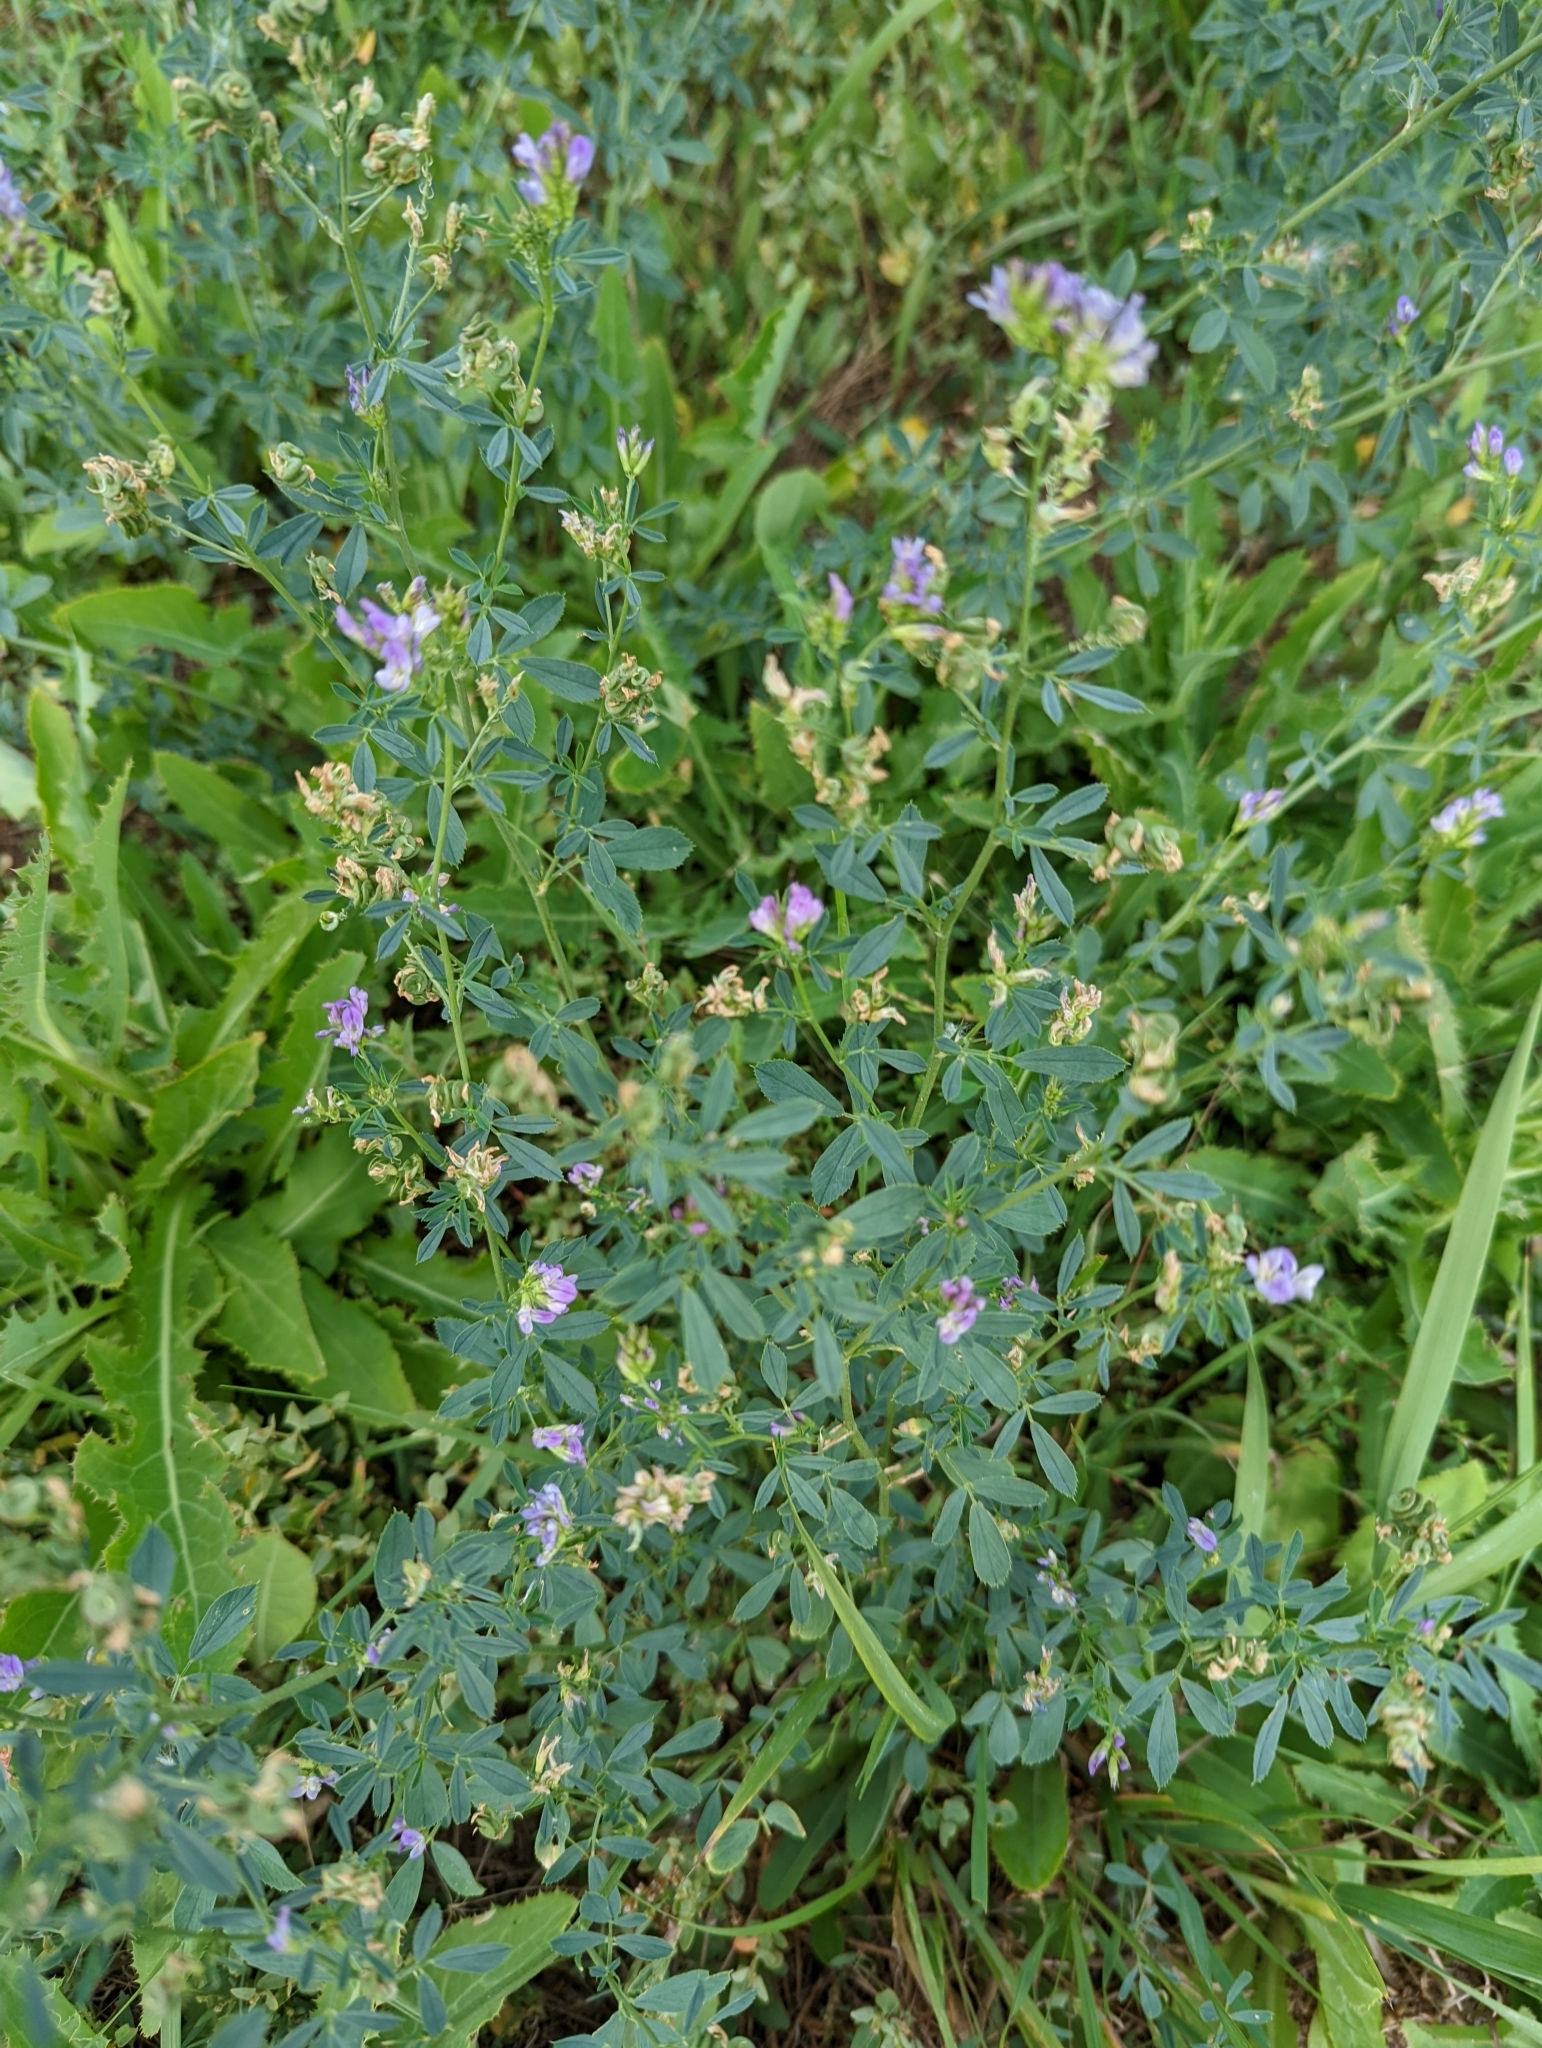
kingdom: Plantae
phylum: Tracheophyta
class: Magnoliopsida
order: Fabales
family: Fabaceae
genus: Medicago
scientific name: Medicago sativa
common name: Alfalfa
